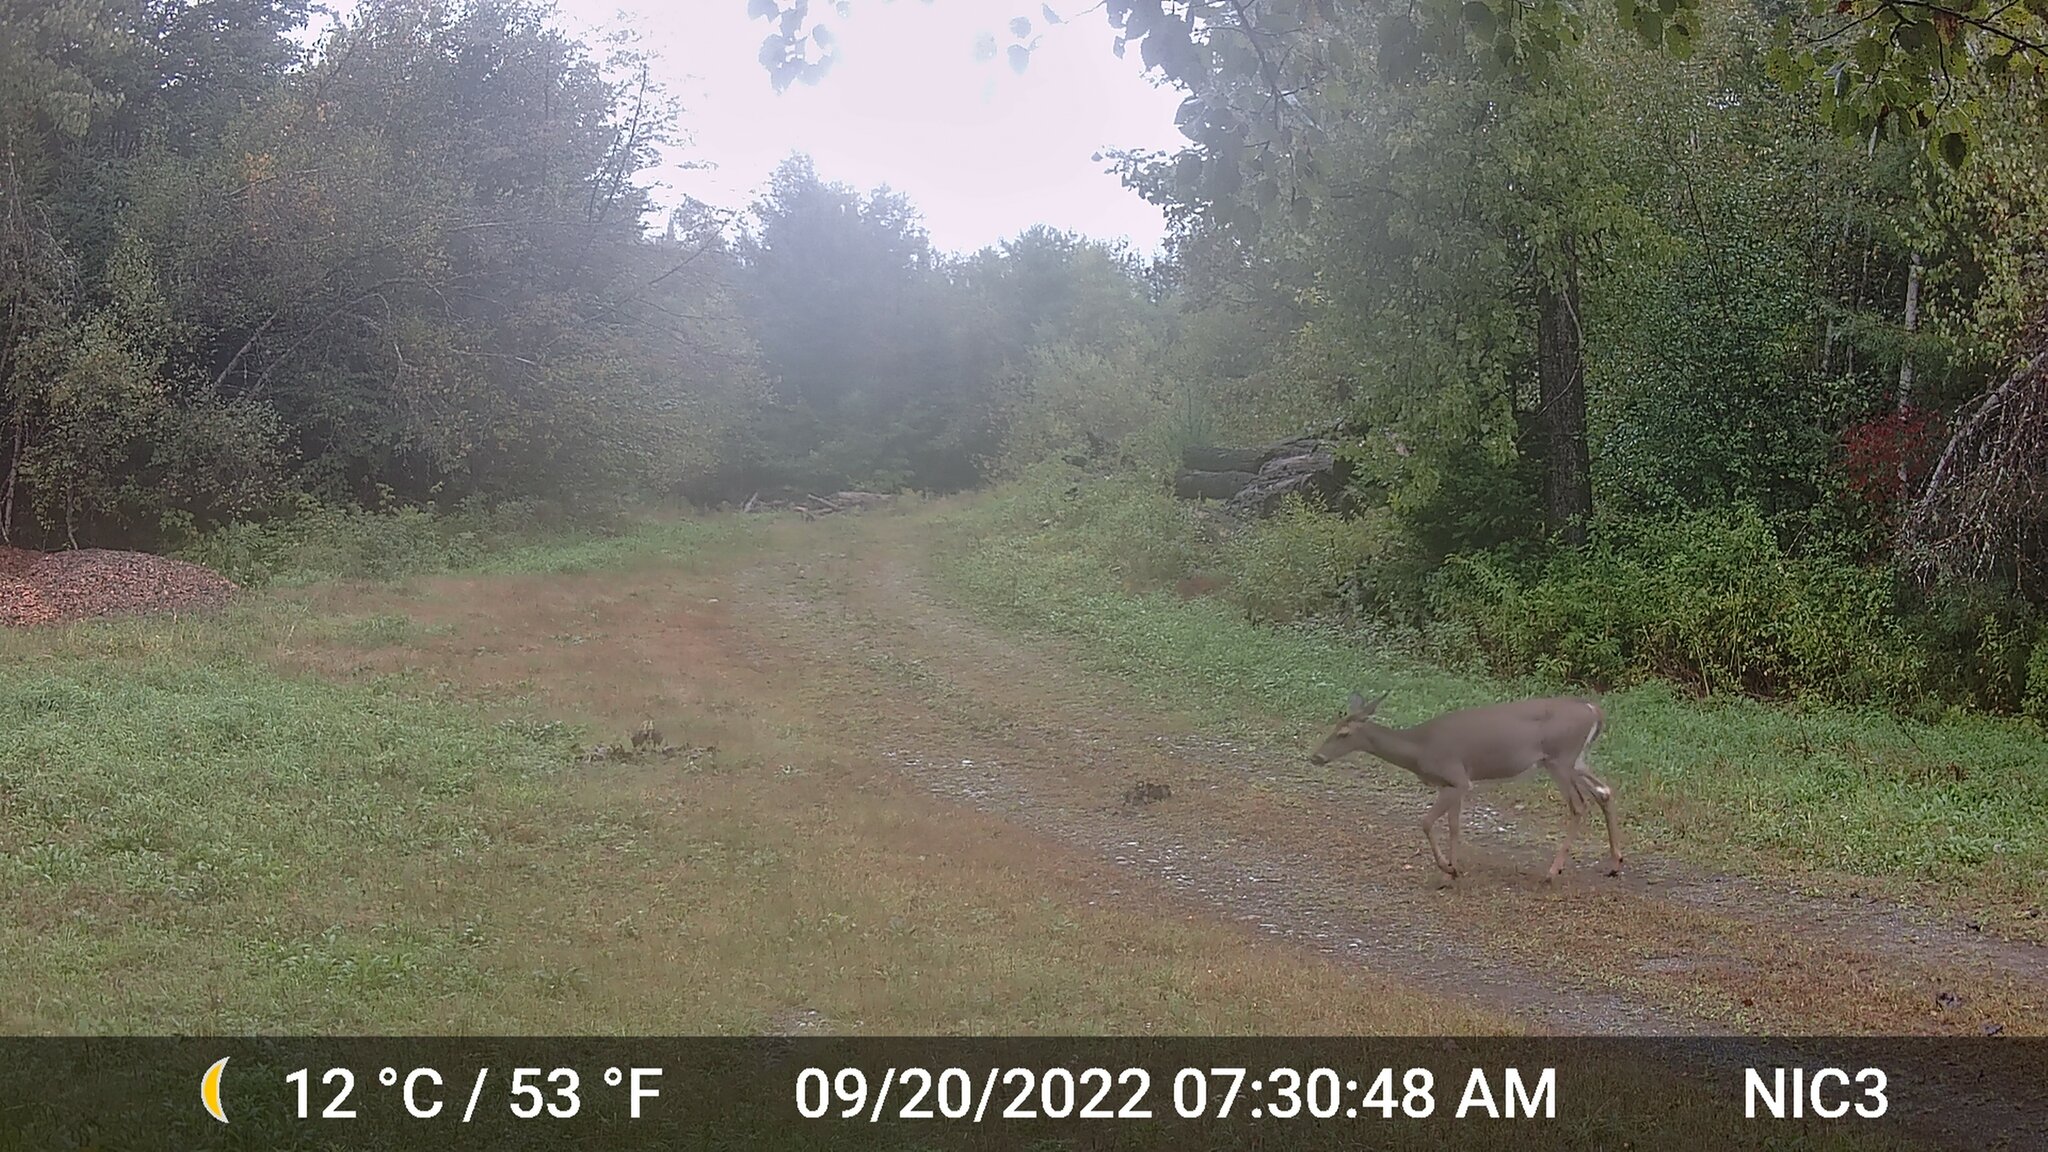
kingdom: Animalia
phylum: Chordata
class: Mammalia
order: Artiodactyla
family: Cervidae
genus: Odocoileus
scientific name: Odocoileus virginianus
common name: White-tailed deer
